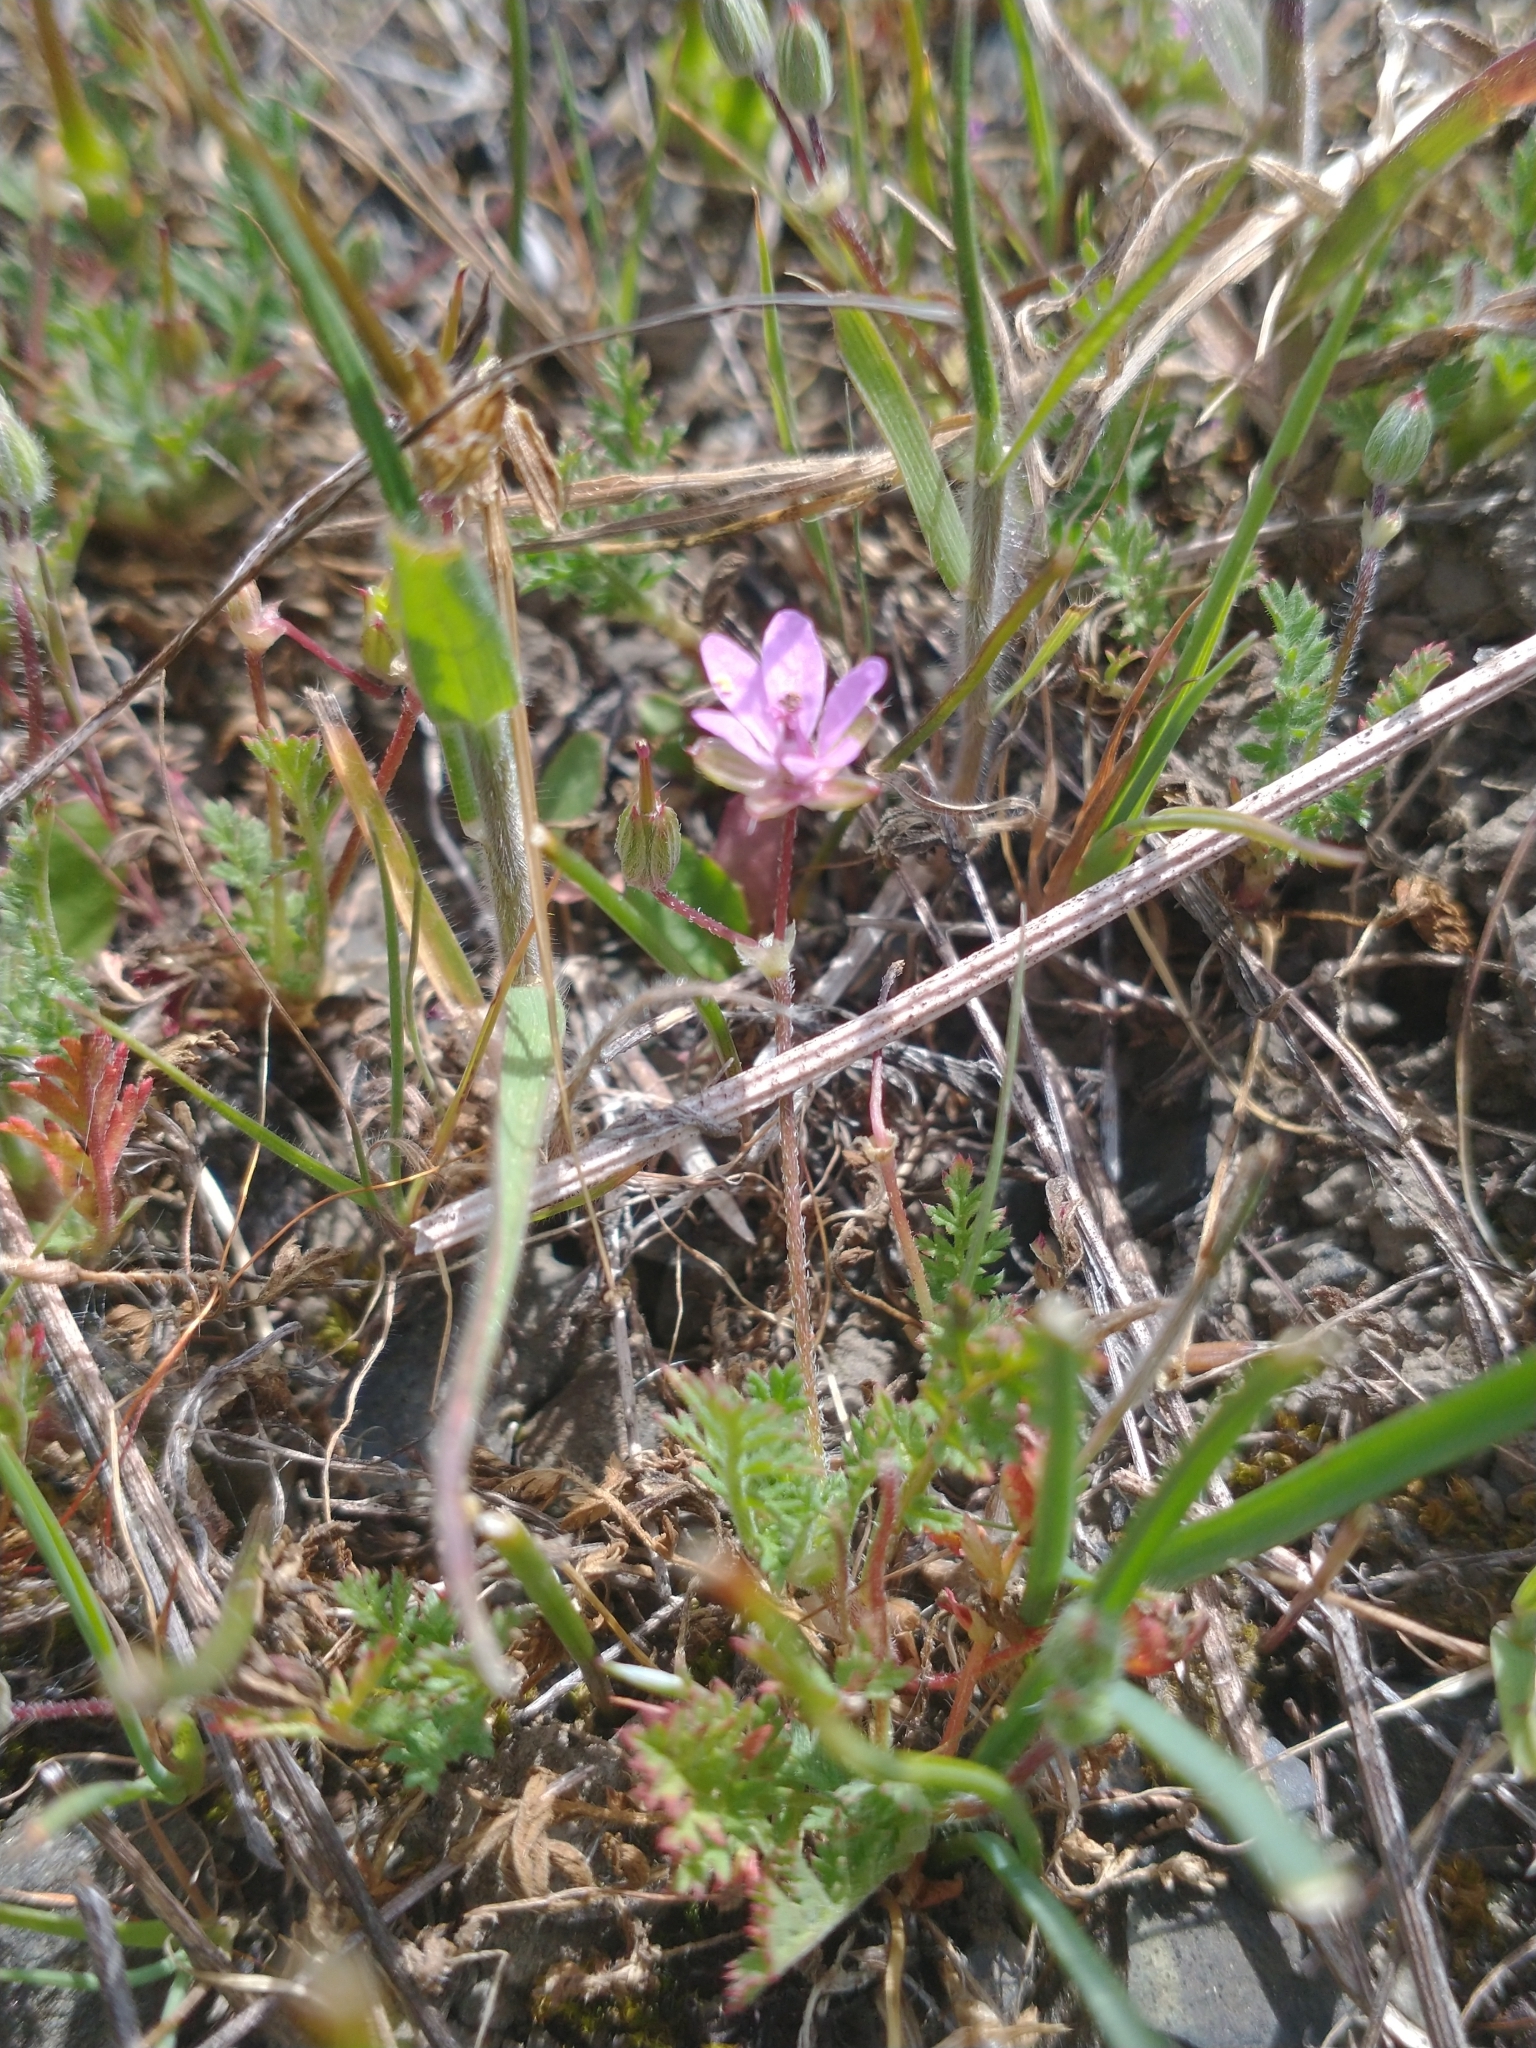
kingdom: Plantae
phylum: Tracheophyta
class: Magnoliopsida
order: Geraniales
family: Geraniaceae
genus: Erodium
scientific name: Erodium cicutarium
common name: Common stork's-bill
